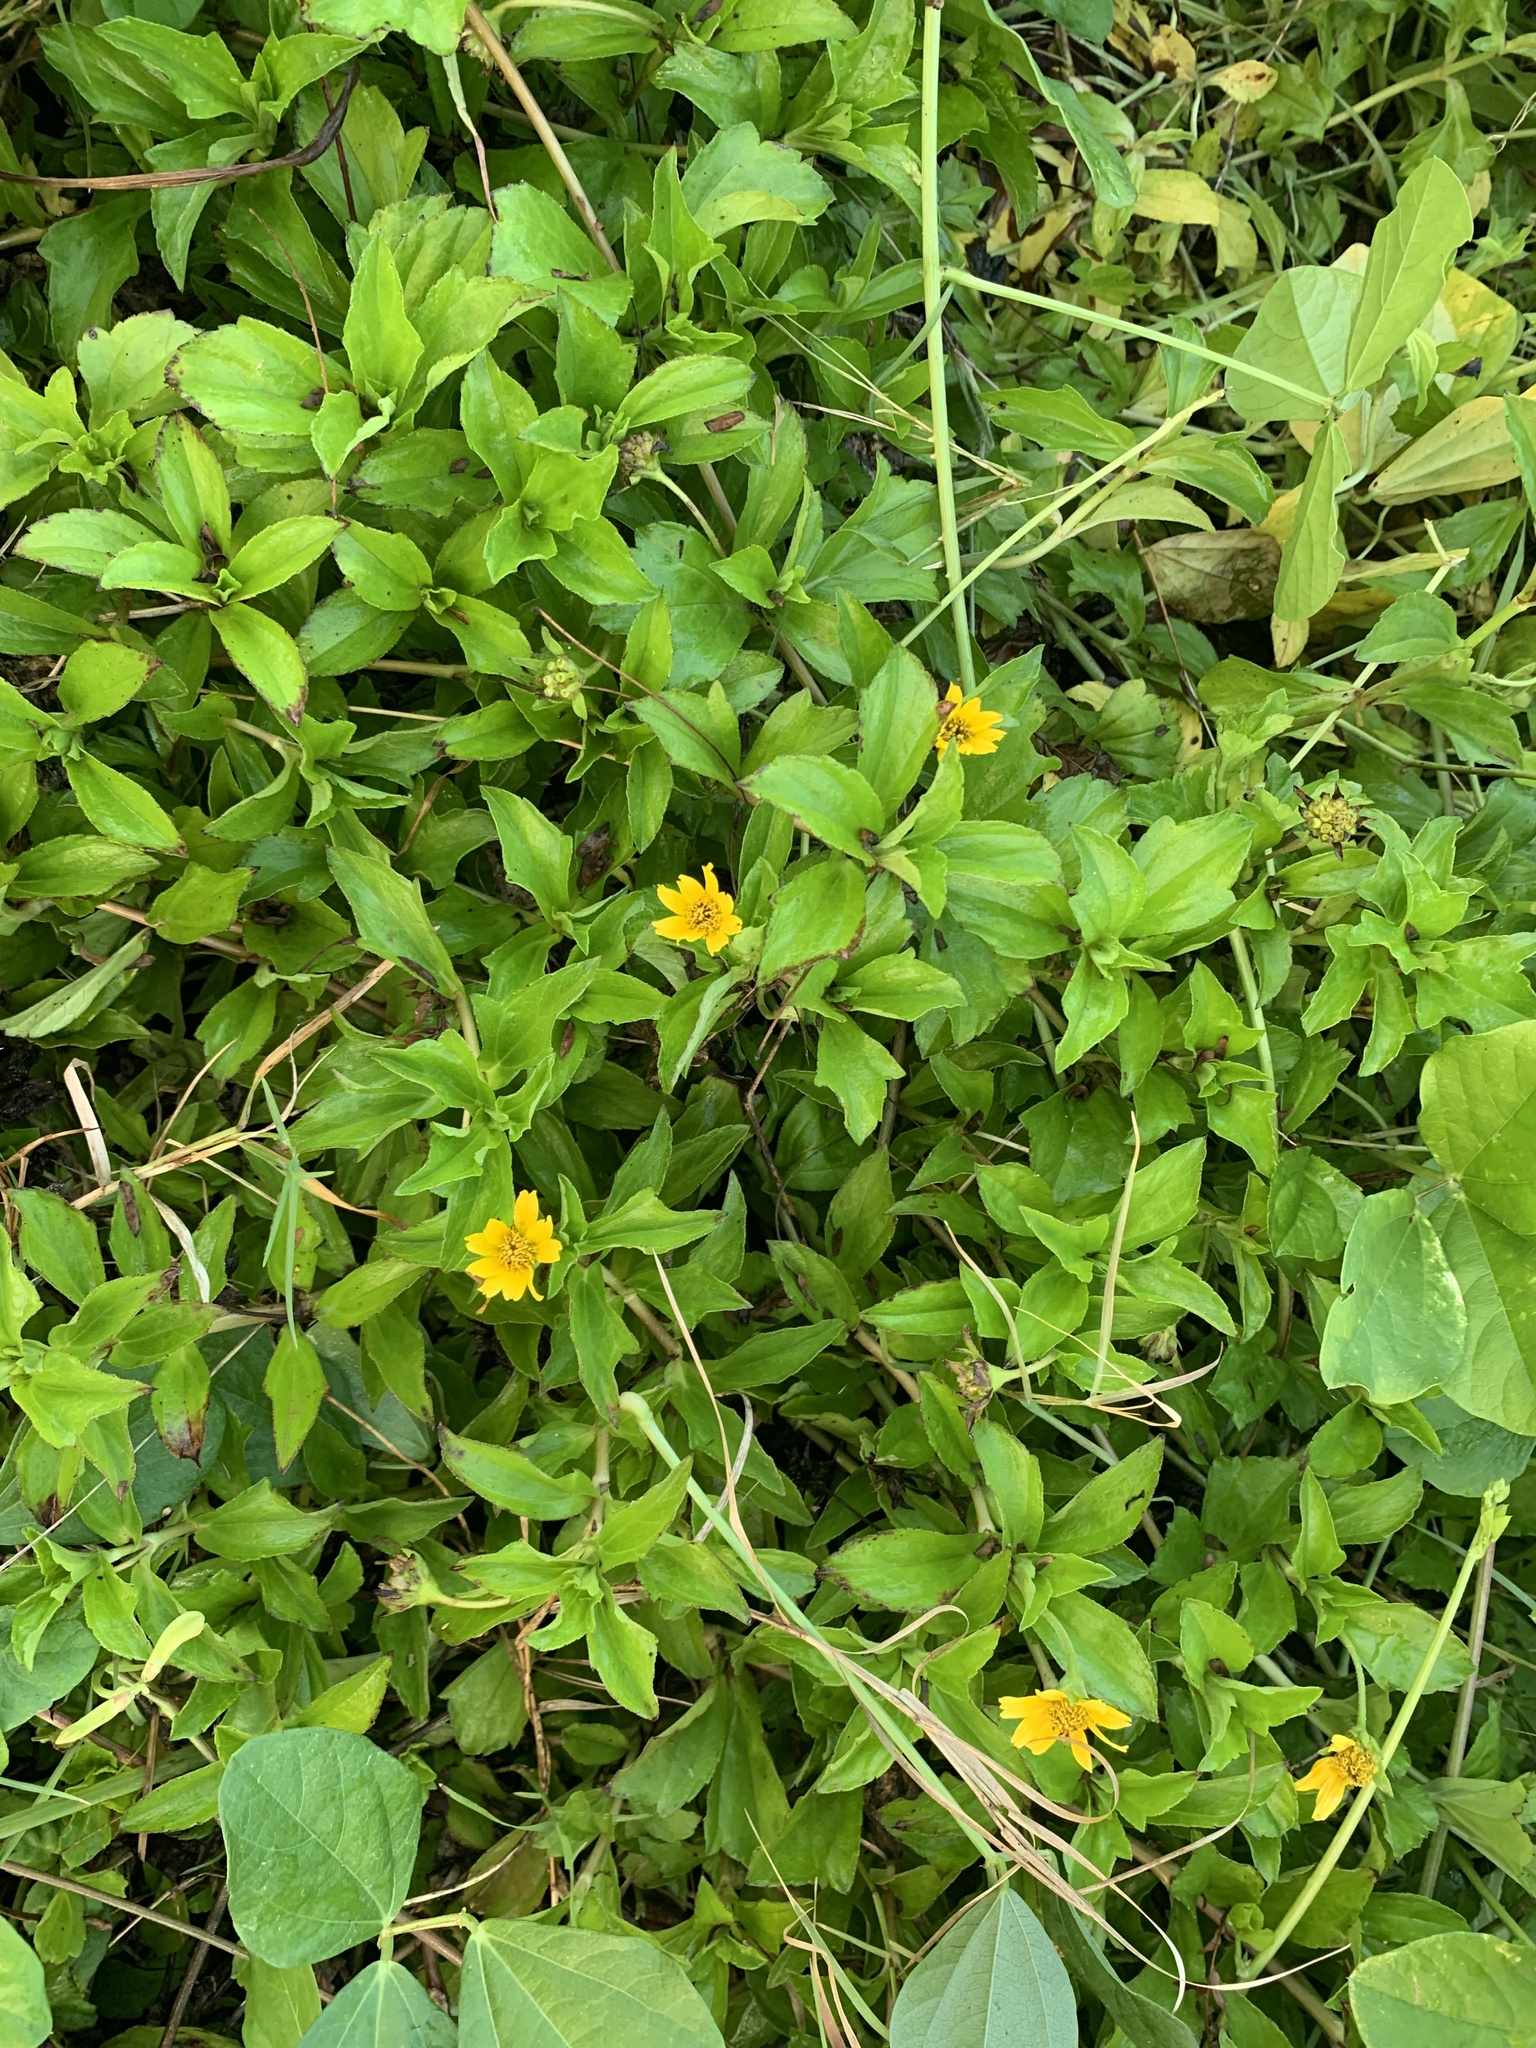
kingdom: Plantae
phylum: Tracheophyta
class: Magnoliopsida
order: Asterales
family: Asteraceae
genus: Sphagneticola
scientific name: Sphagneticola trilobata
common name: Bay biscayne creeping-oxeye
